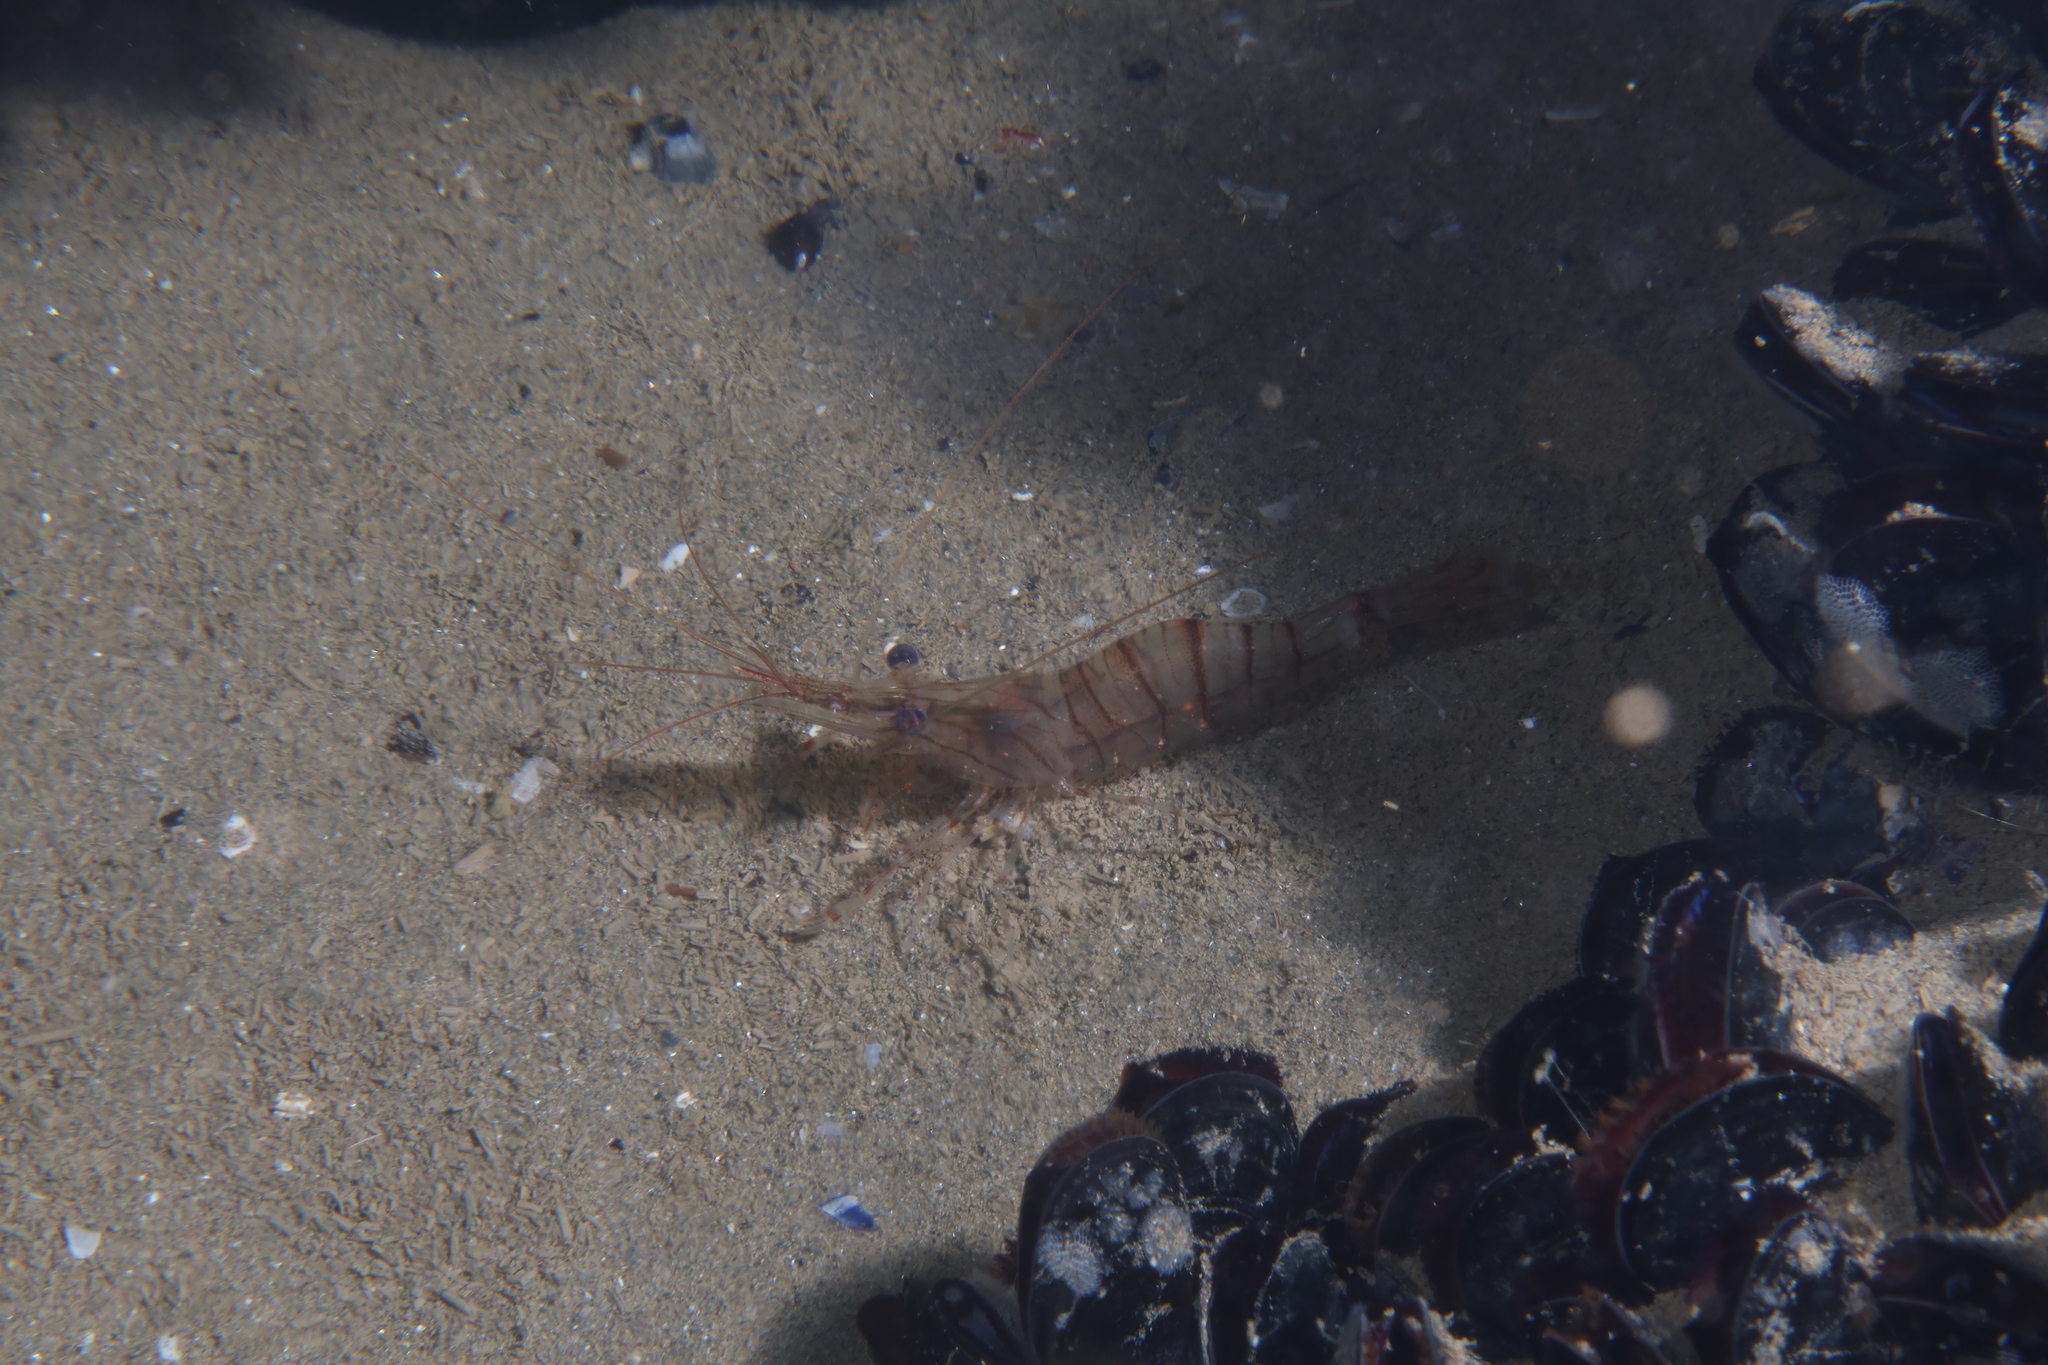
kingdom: Animalia
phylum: Arthropoda
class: Malacostraca
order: Decapoda
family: Palaemonidae
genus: Palaemon
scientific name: Palaemon serratus
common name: Common prawn
